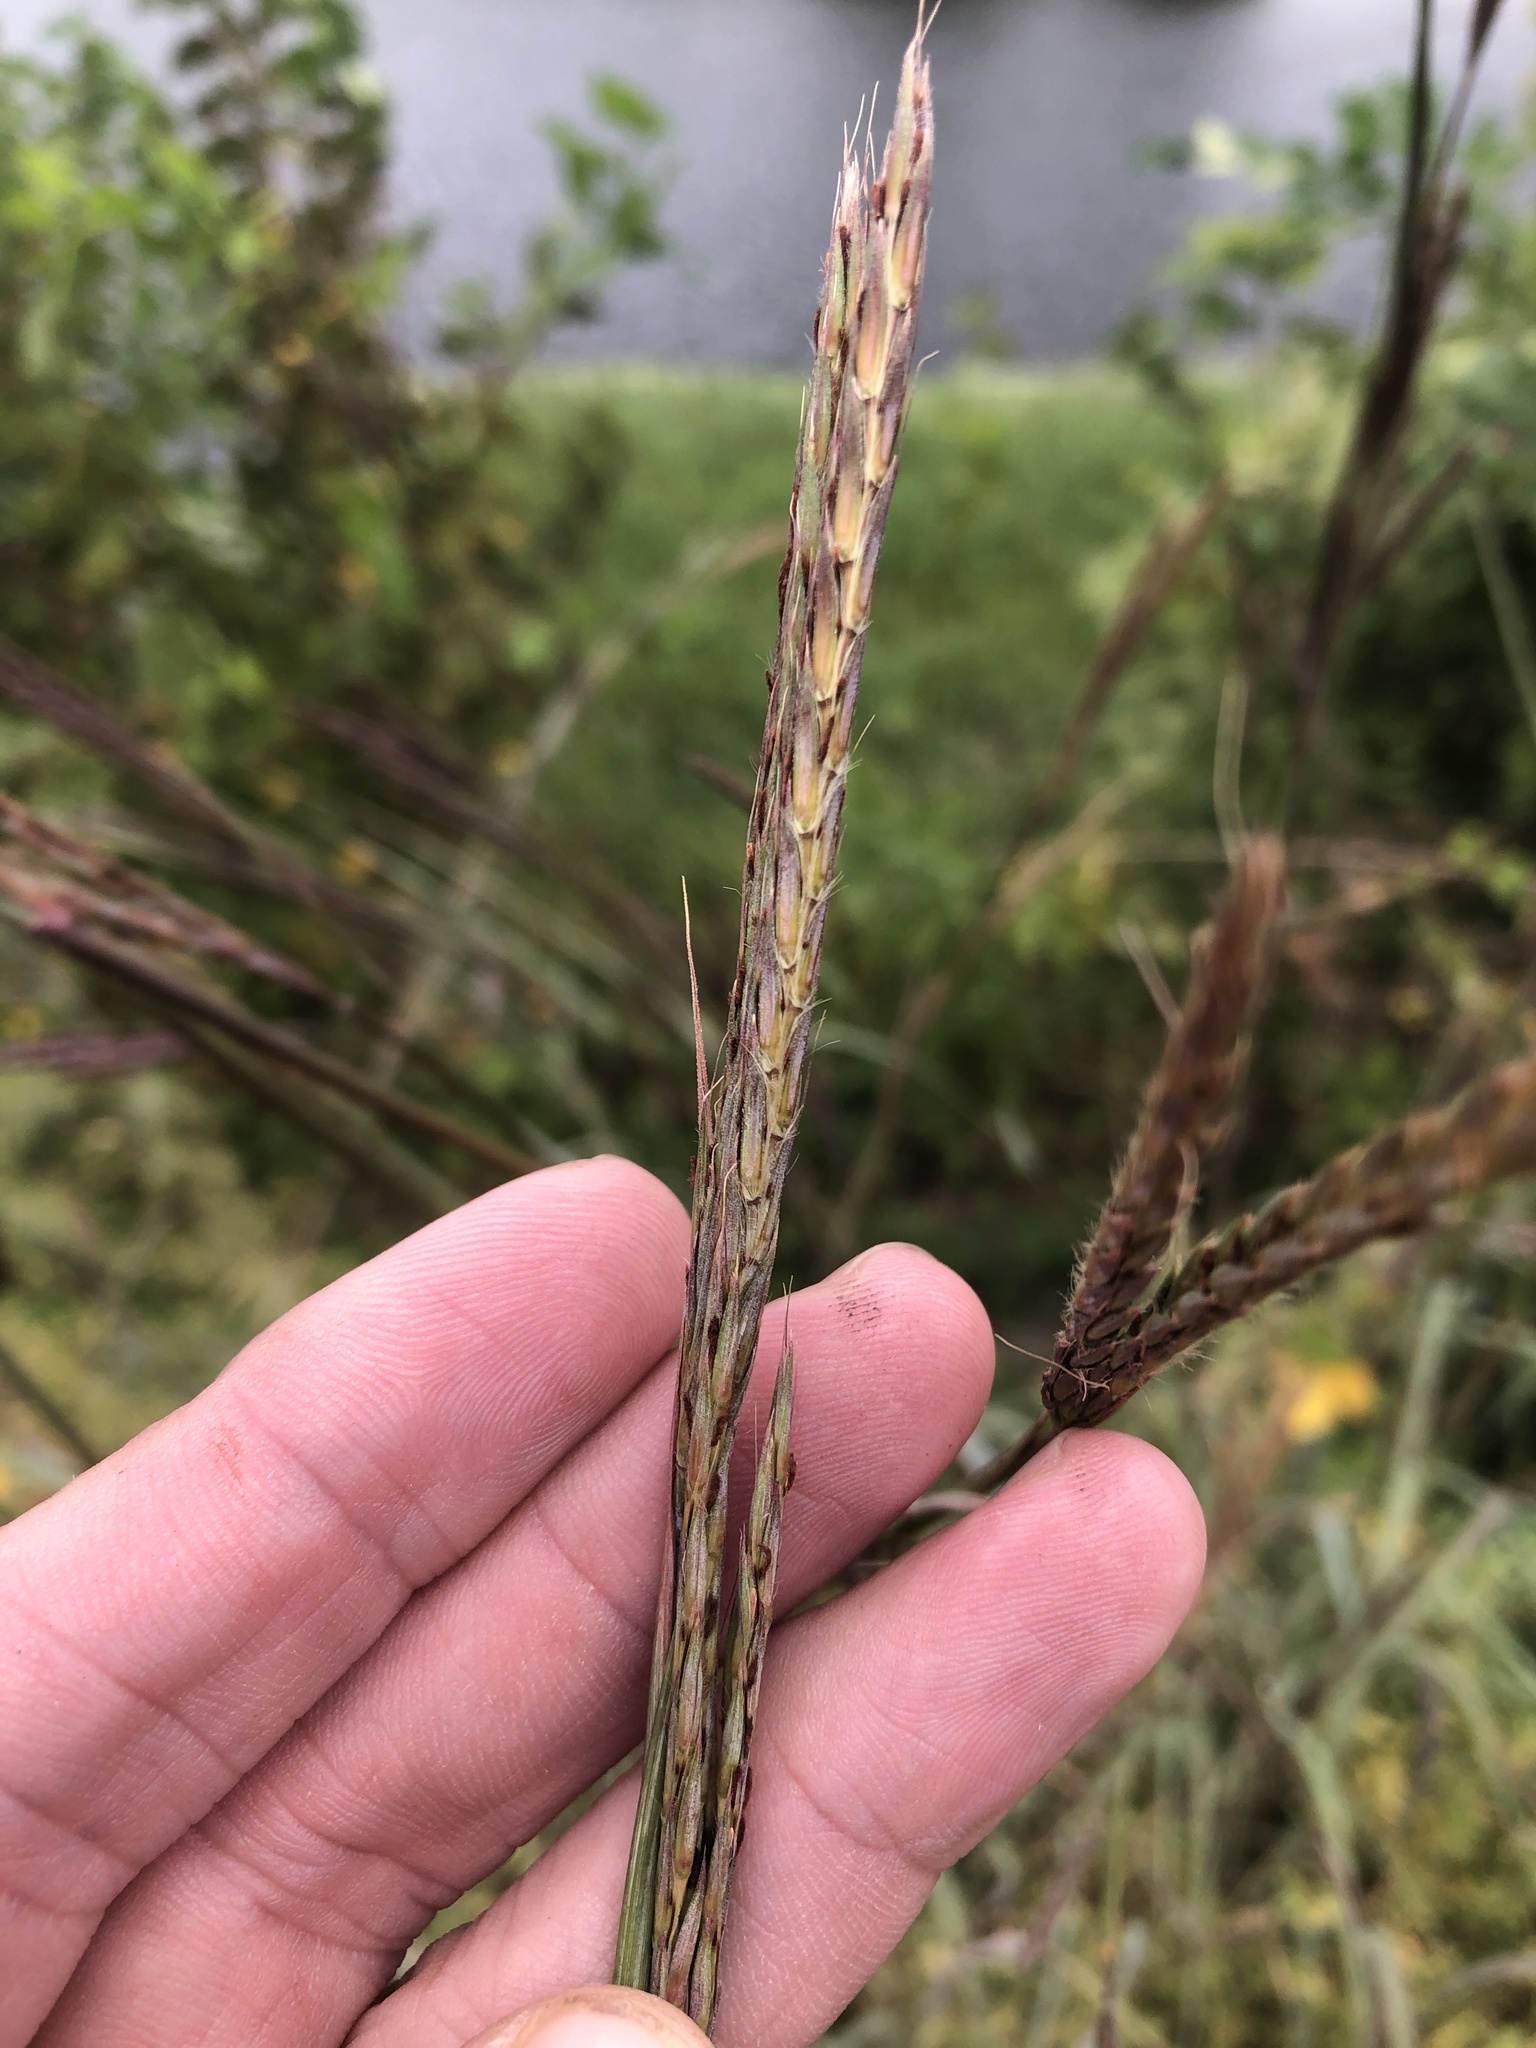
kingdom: Plantae
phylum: Tracheophyta
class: Liliopsida
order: Poales
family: Poaceae
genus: Andropogon
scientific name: Andropogon gerardi
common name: Big bluestem
